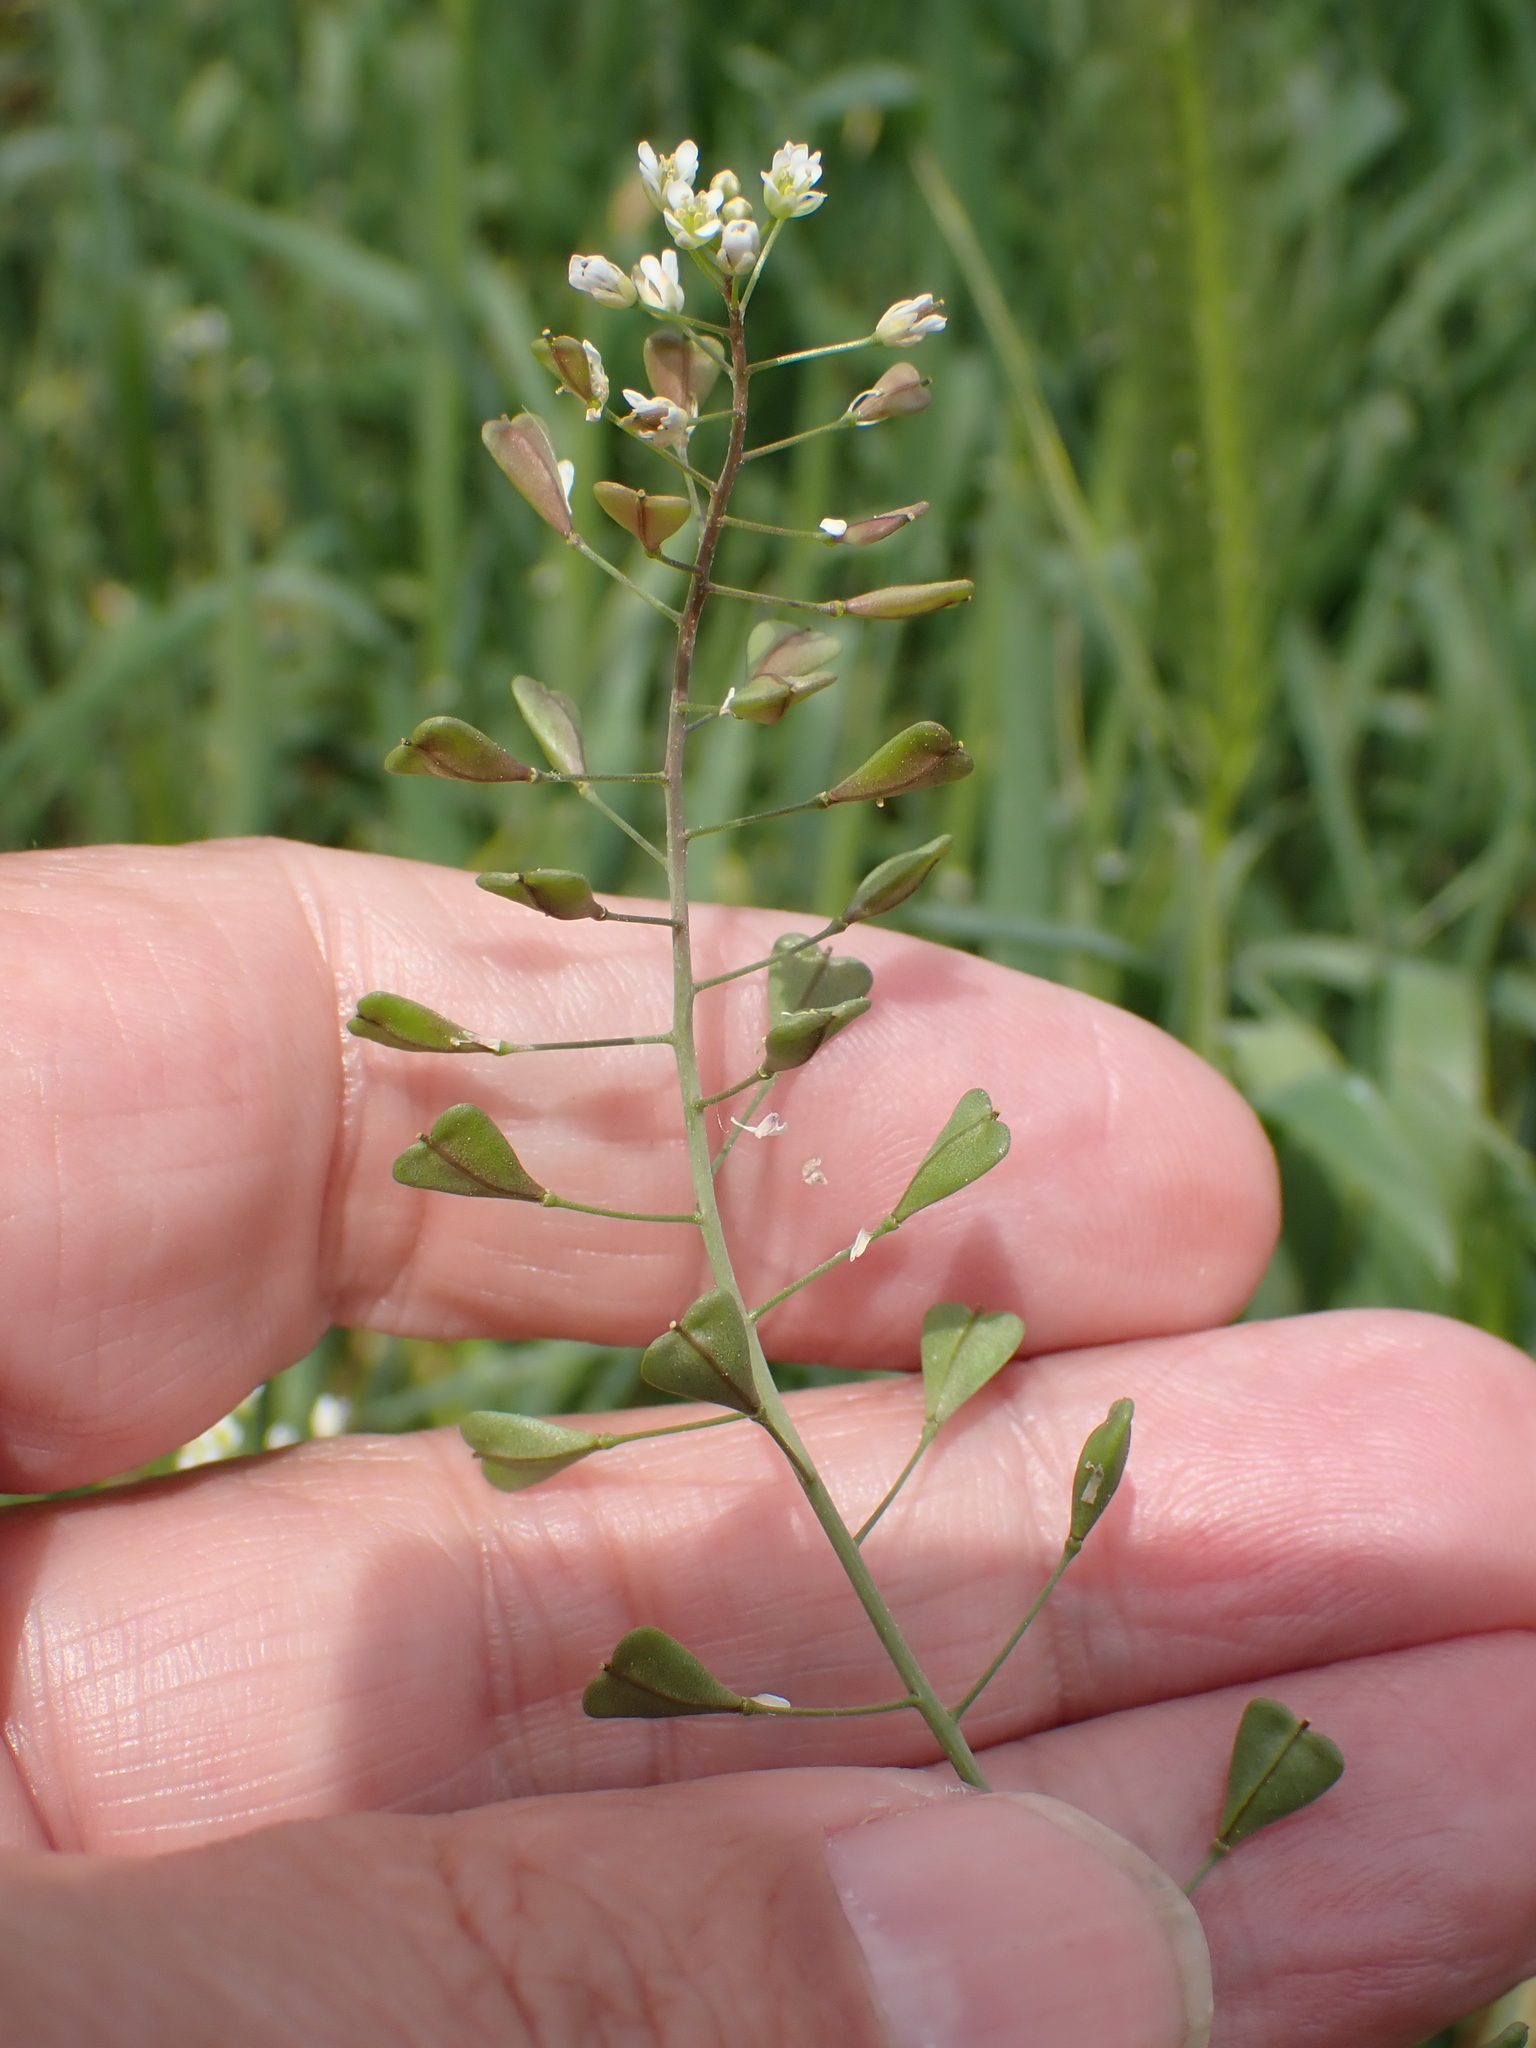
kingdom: Plantae
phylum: Tracheophyta
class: Magnoliopsida
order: Brassicales
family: Brassicaceae
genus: Capsella
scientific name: Capsella bursa-pastoris
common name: Shepherd's purse
